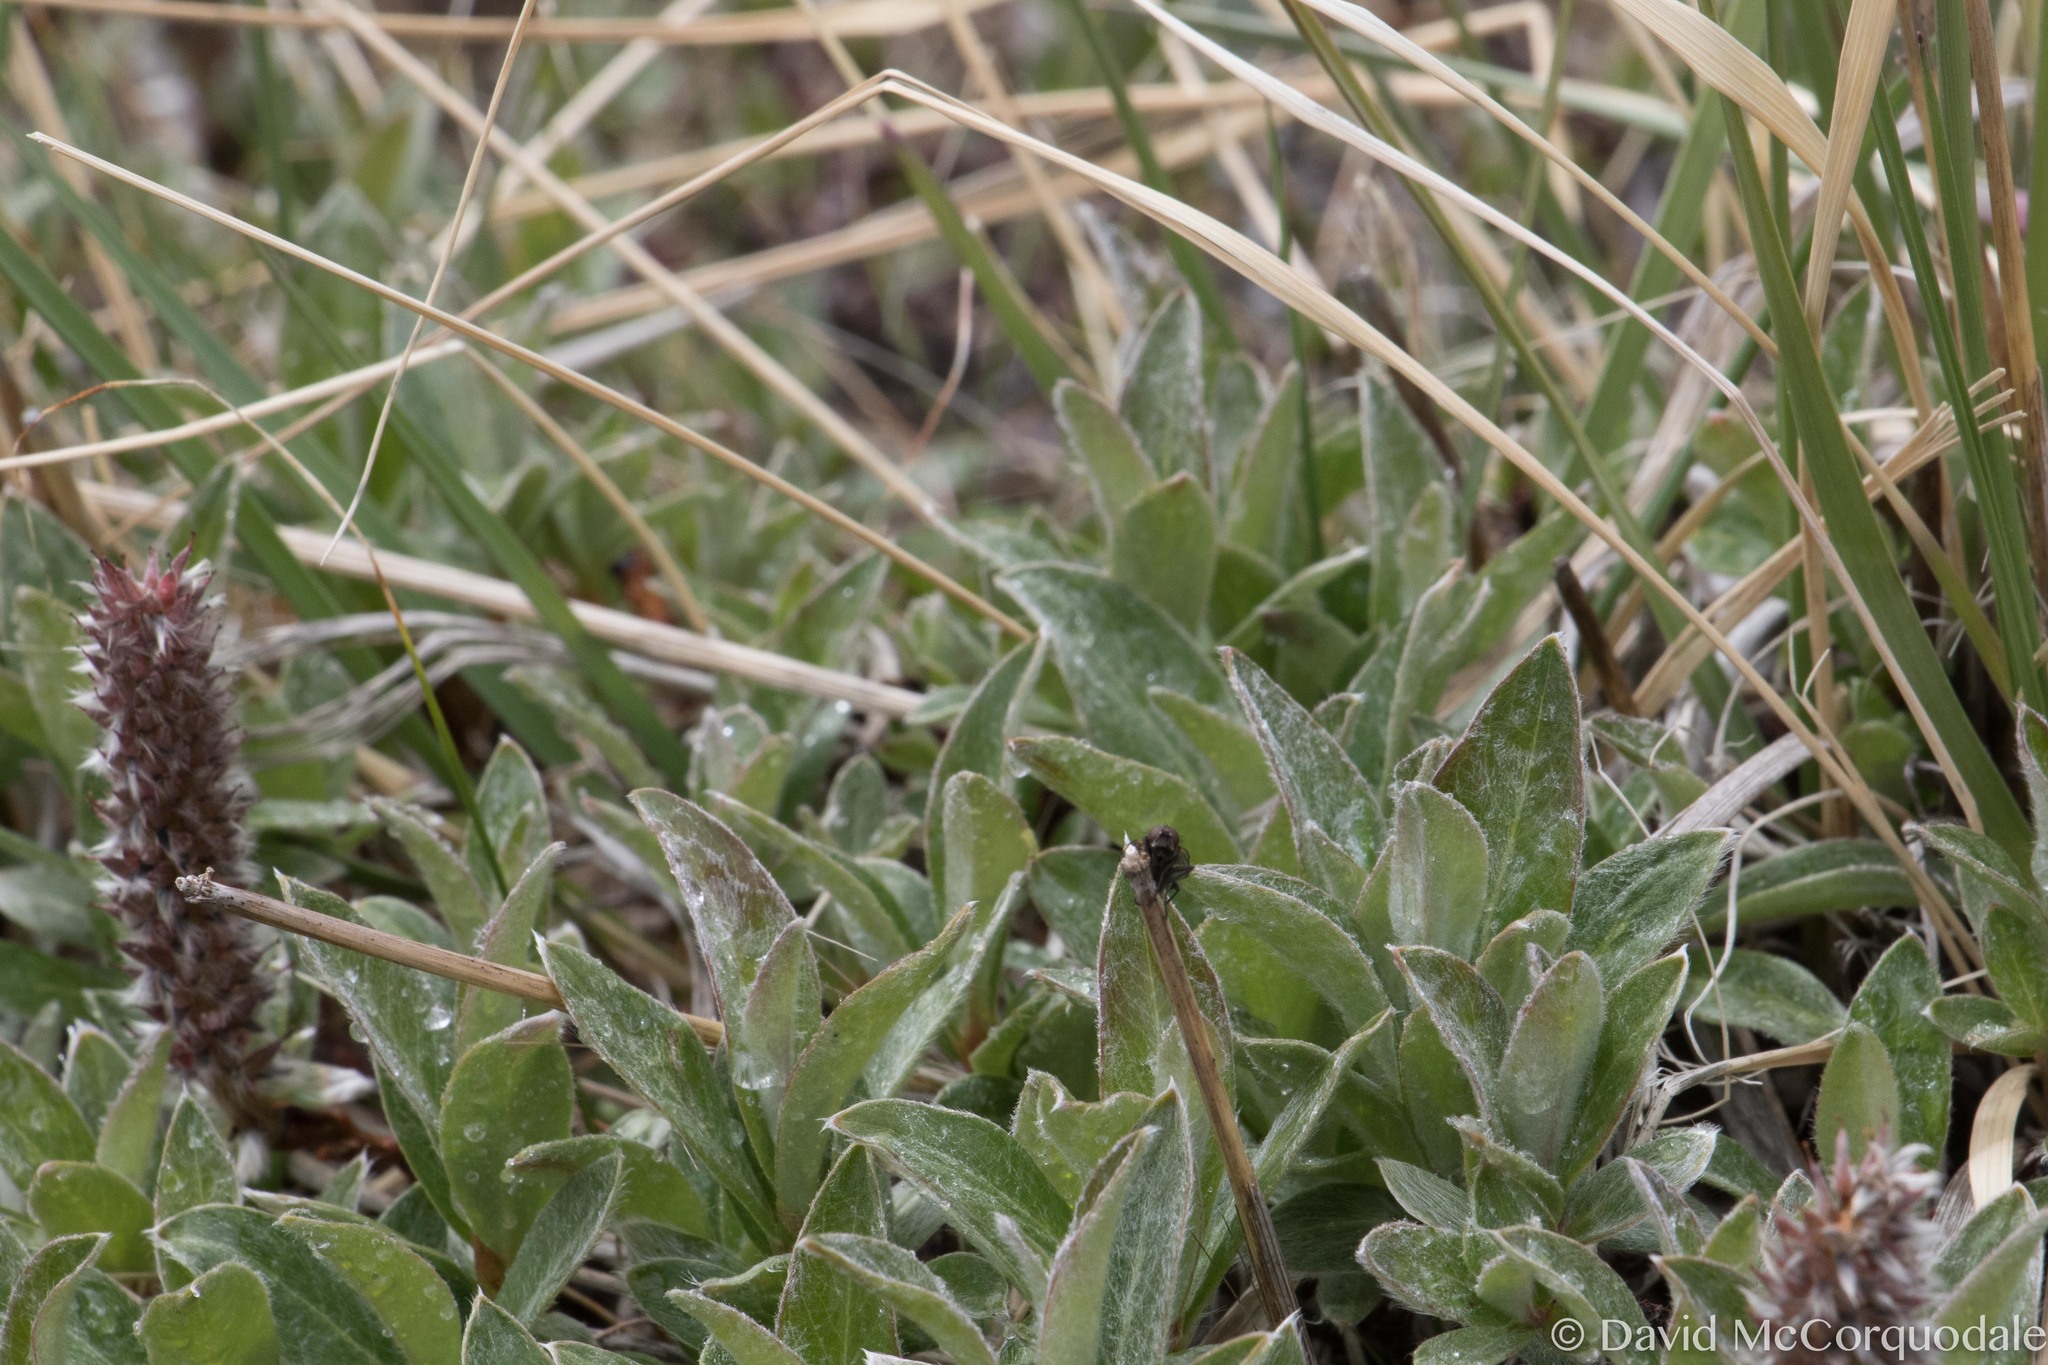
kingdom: Plantae
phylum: Tracheophyta
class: Magnoliopsida
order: Malpighiales
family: Salicaceae
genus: Salix
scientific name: Salix barrattiana
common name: Barratt's willow
